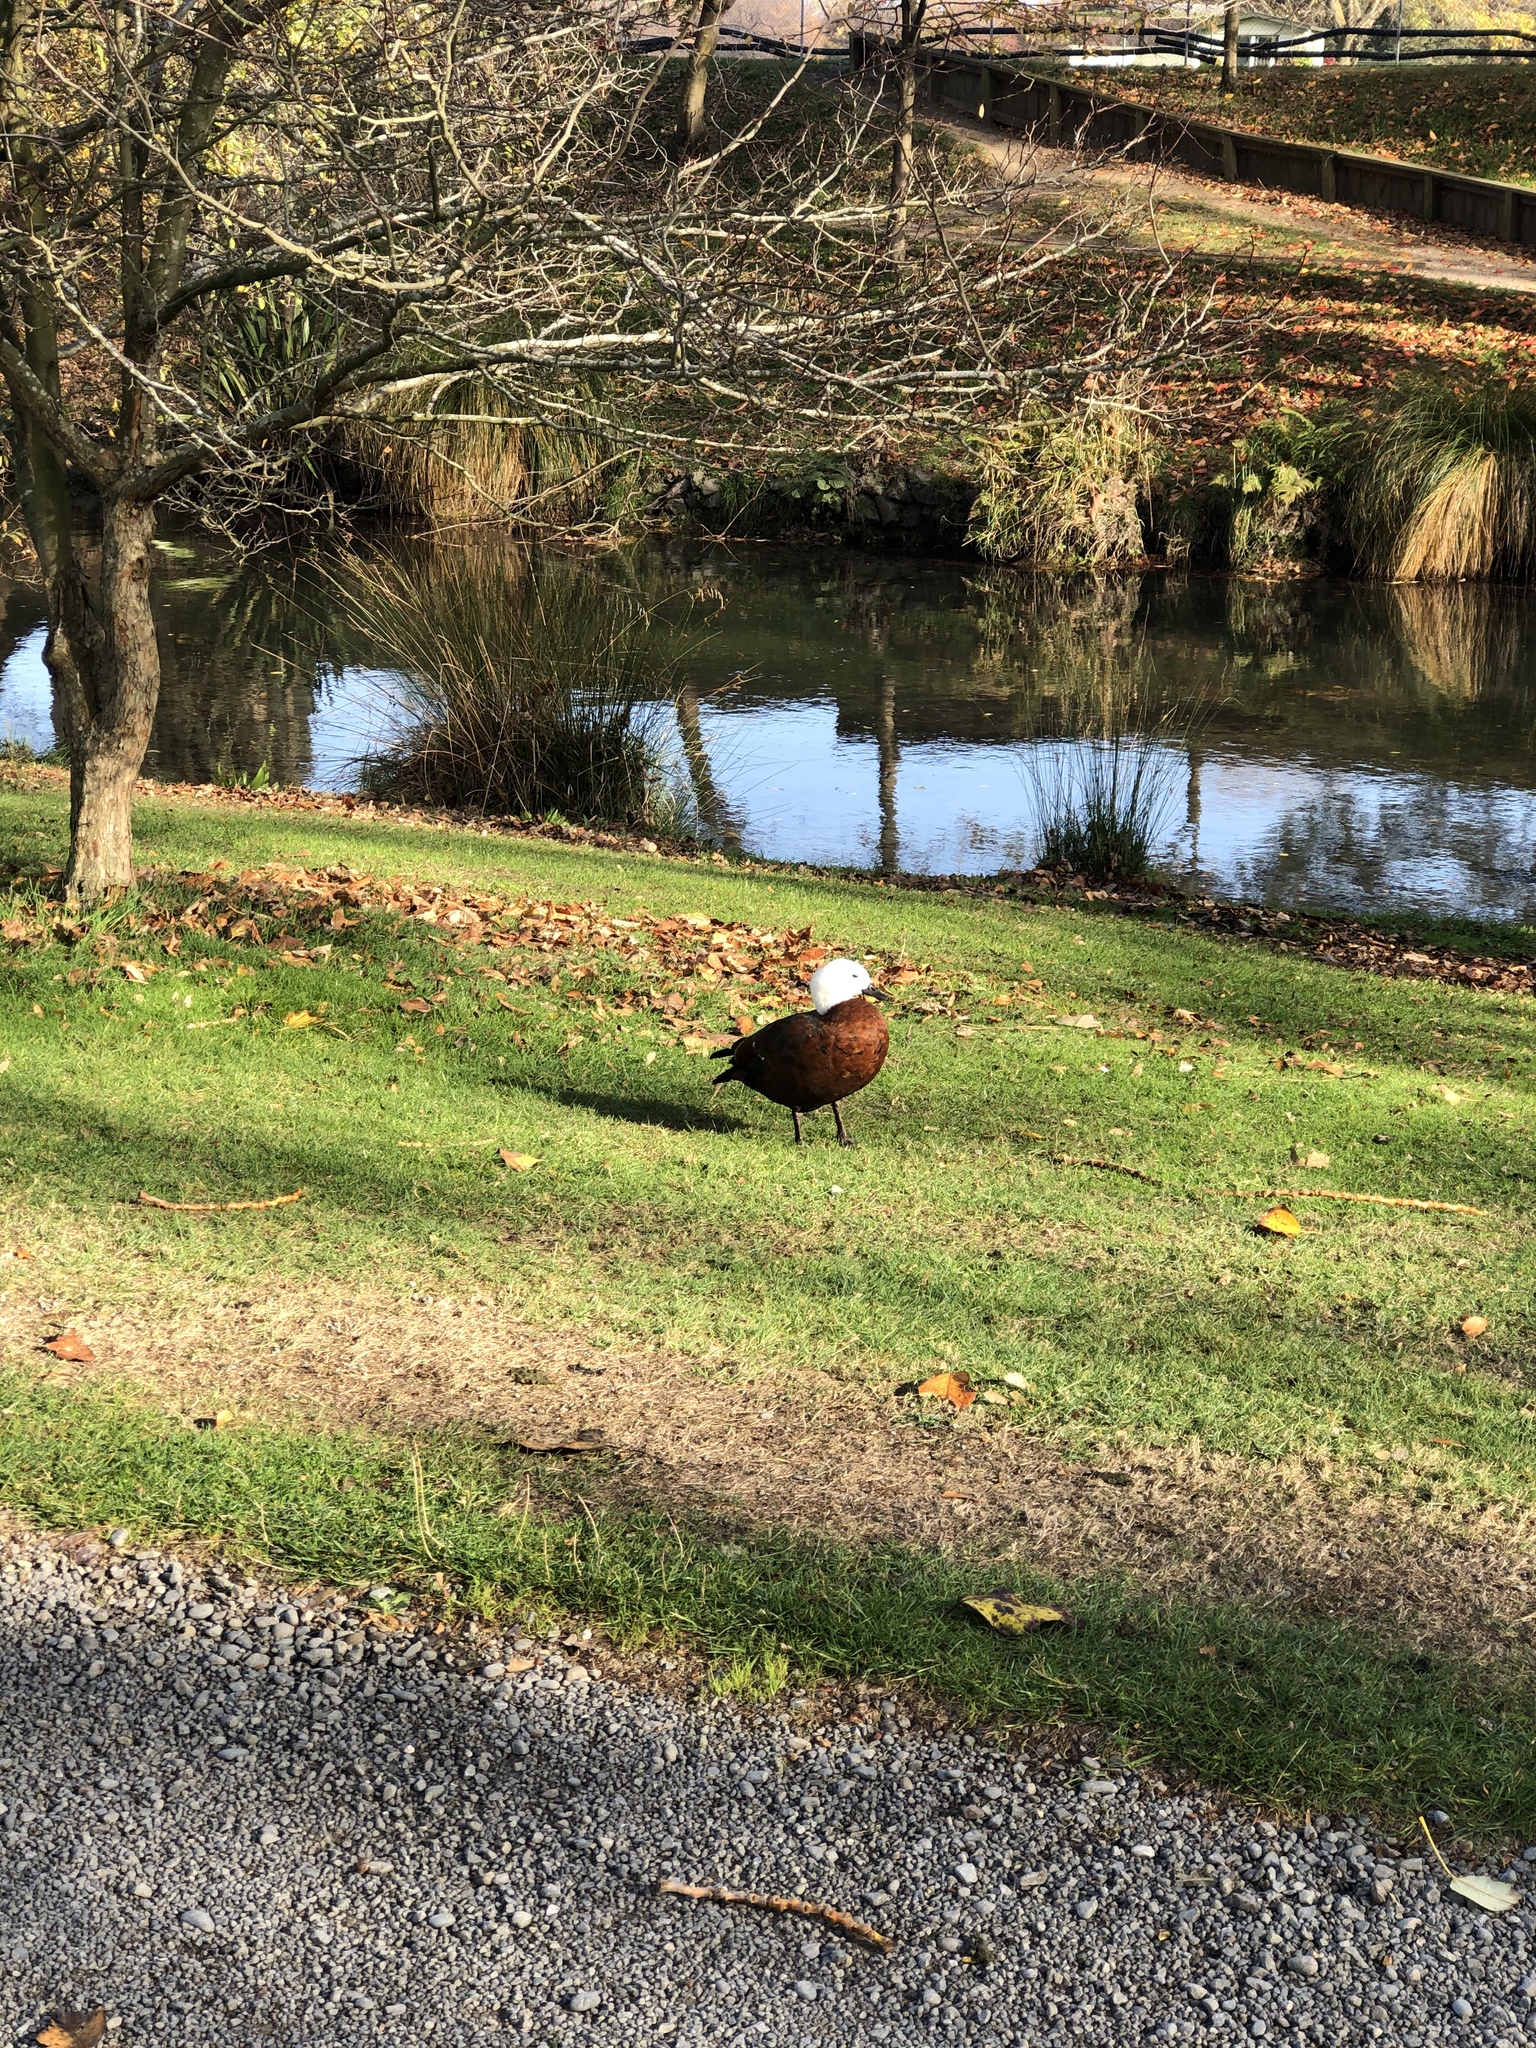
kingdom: Animalia
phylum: Chordata
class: Aves
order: Anseriformes
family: Anatidae
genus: Tadorna
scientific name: Tadorna variegata
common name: Paradise shelduck
